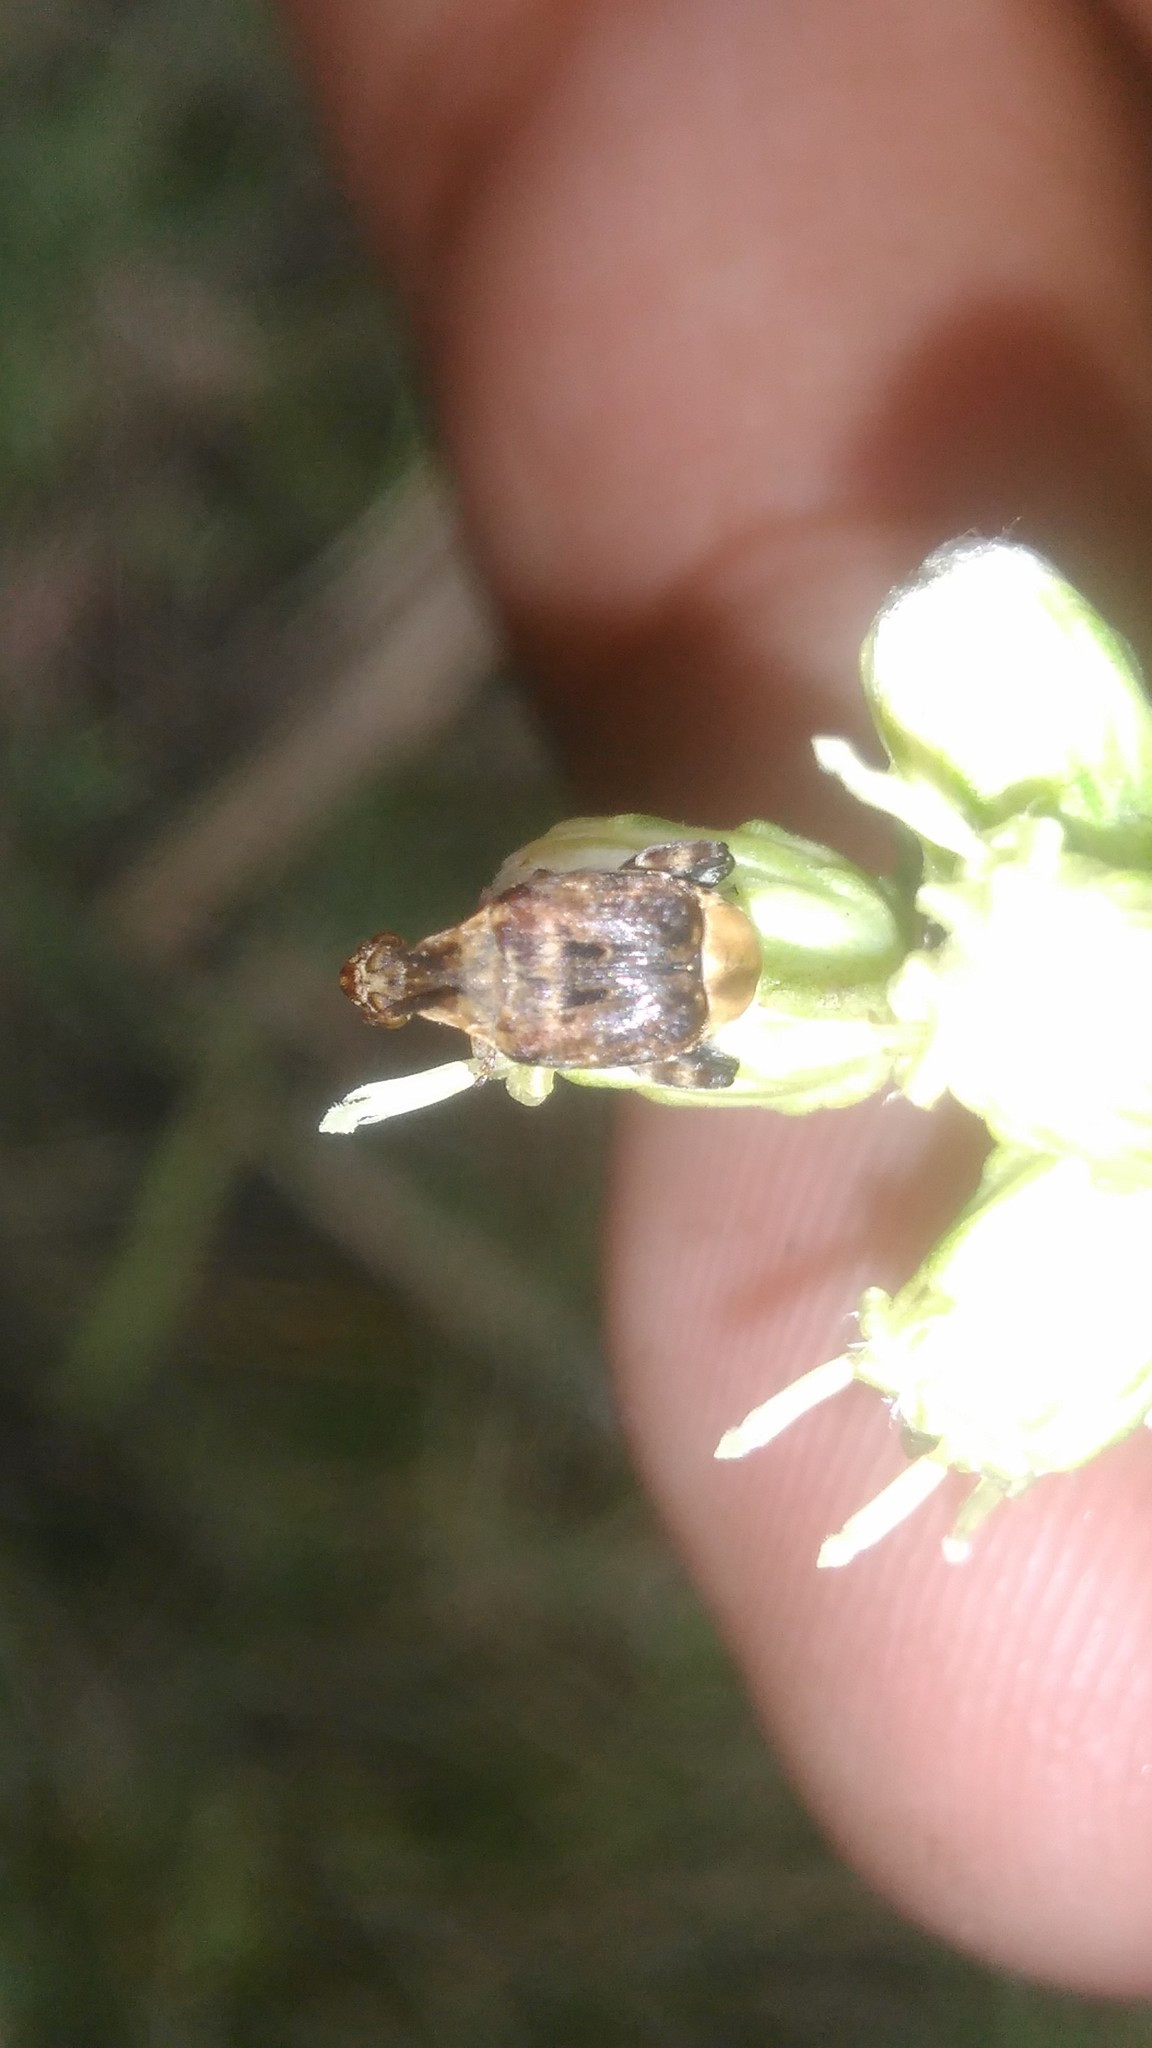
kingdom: Animalia
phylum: Arthropoda
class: Insecta
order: Coleoptera
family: Chrysomelidae
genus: Penthobruchus
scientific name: Penthobruchus
